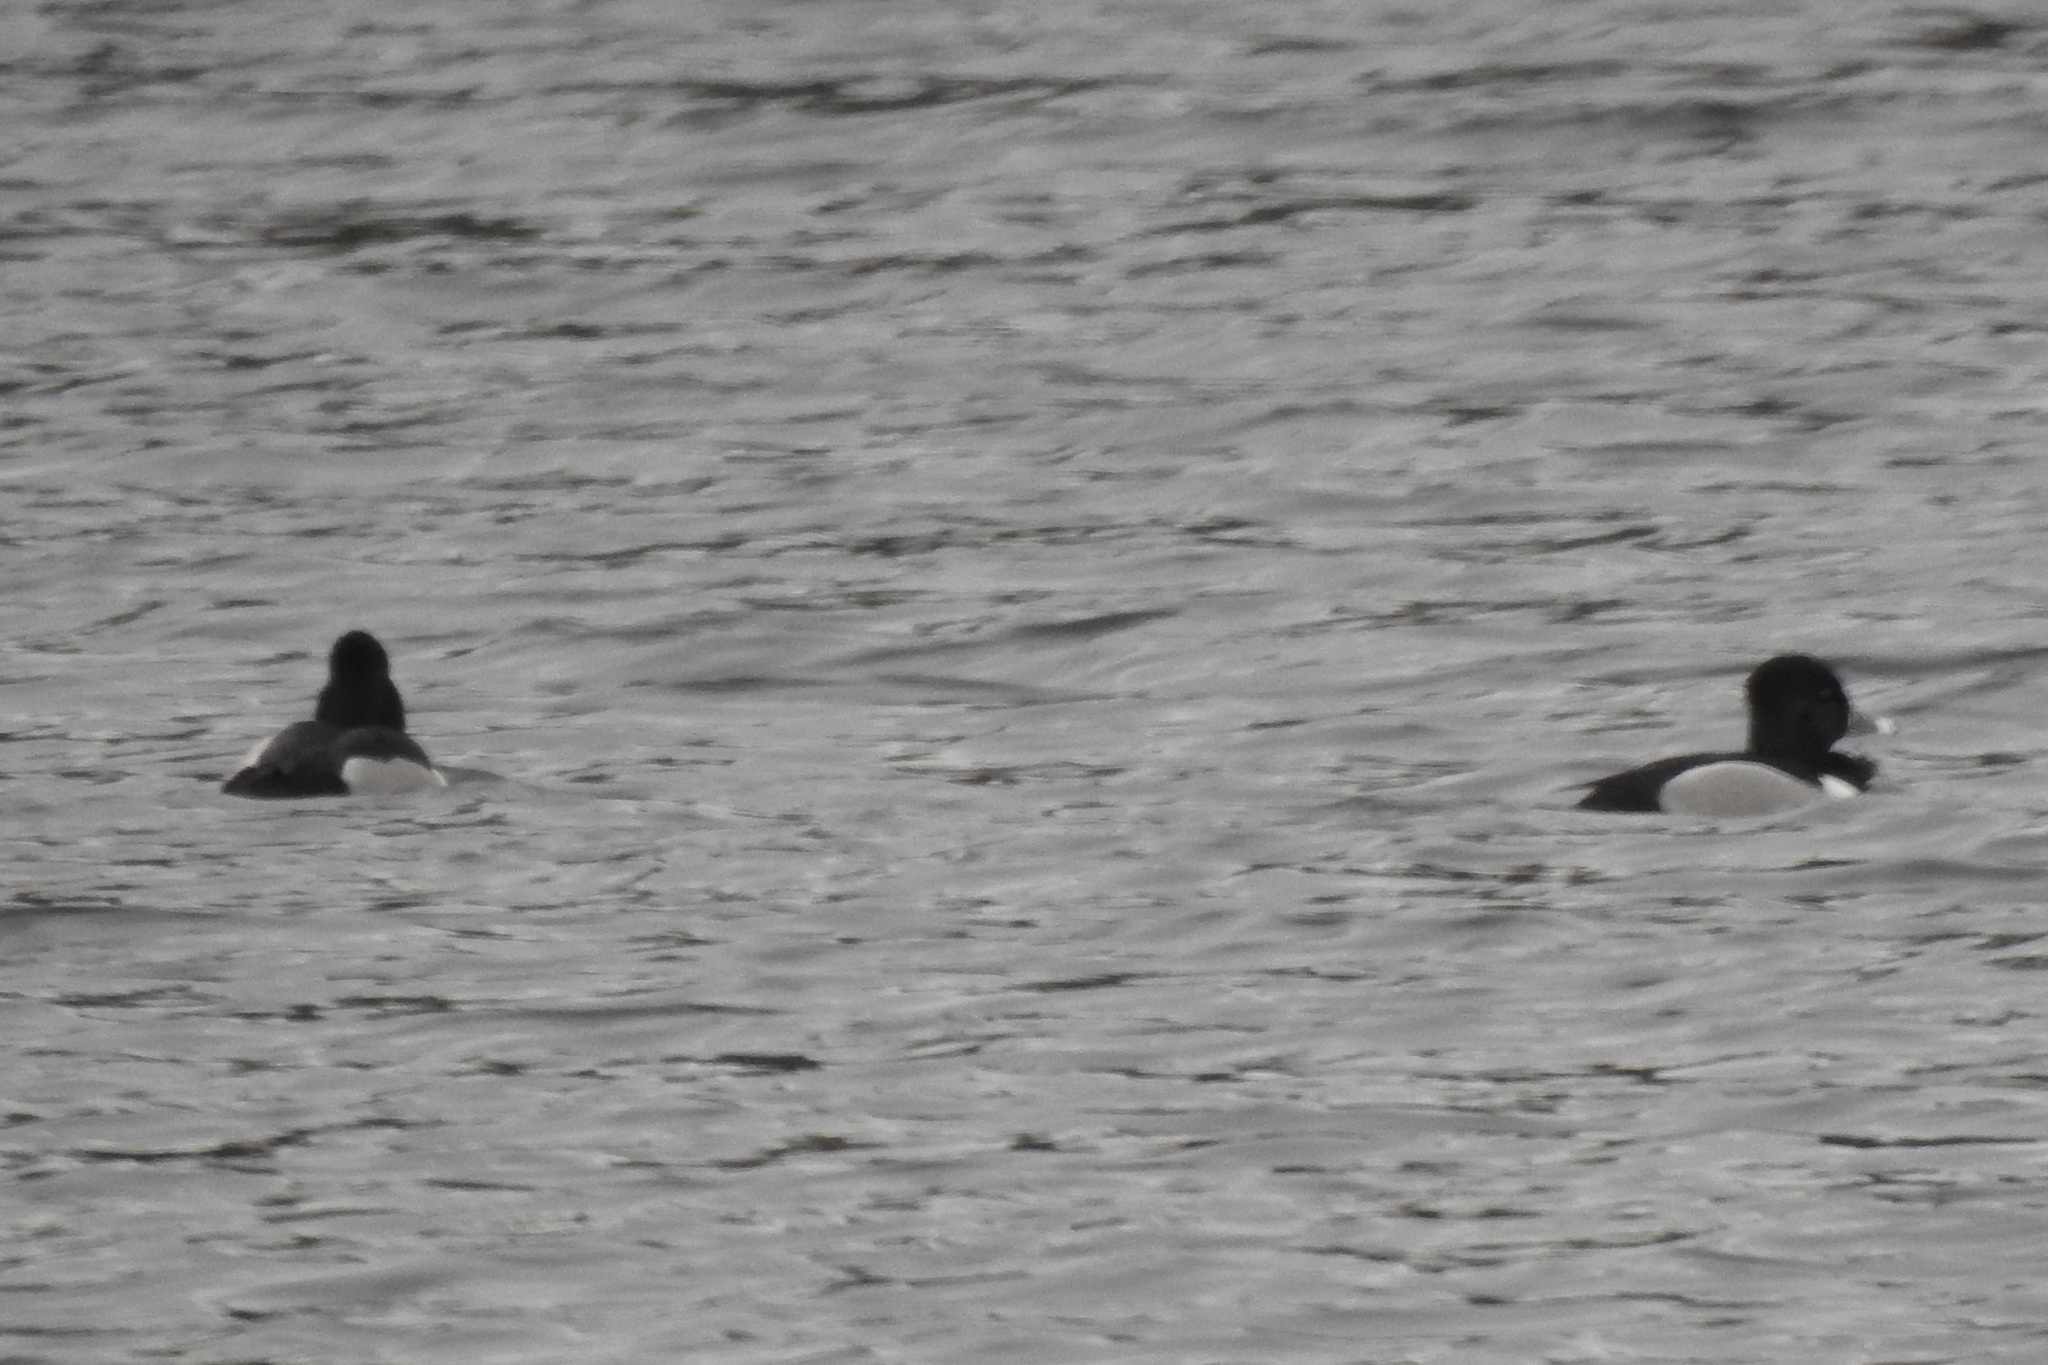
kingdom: Animalia
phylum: Chordata
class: Aves
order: Anseriformes
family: Anatidae
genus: Aythya
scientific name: Aythya collaris
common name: Ring-necked duck
